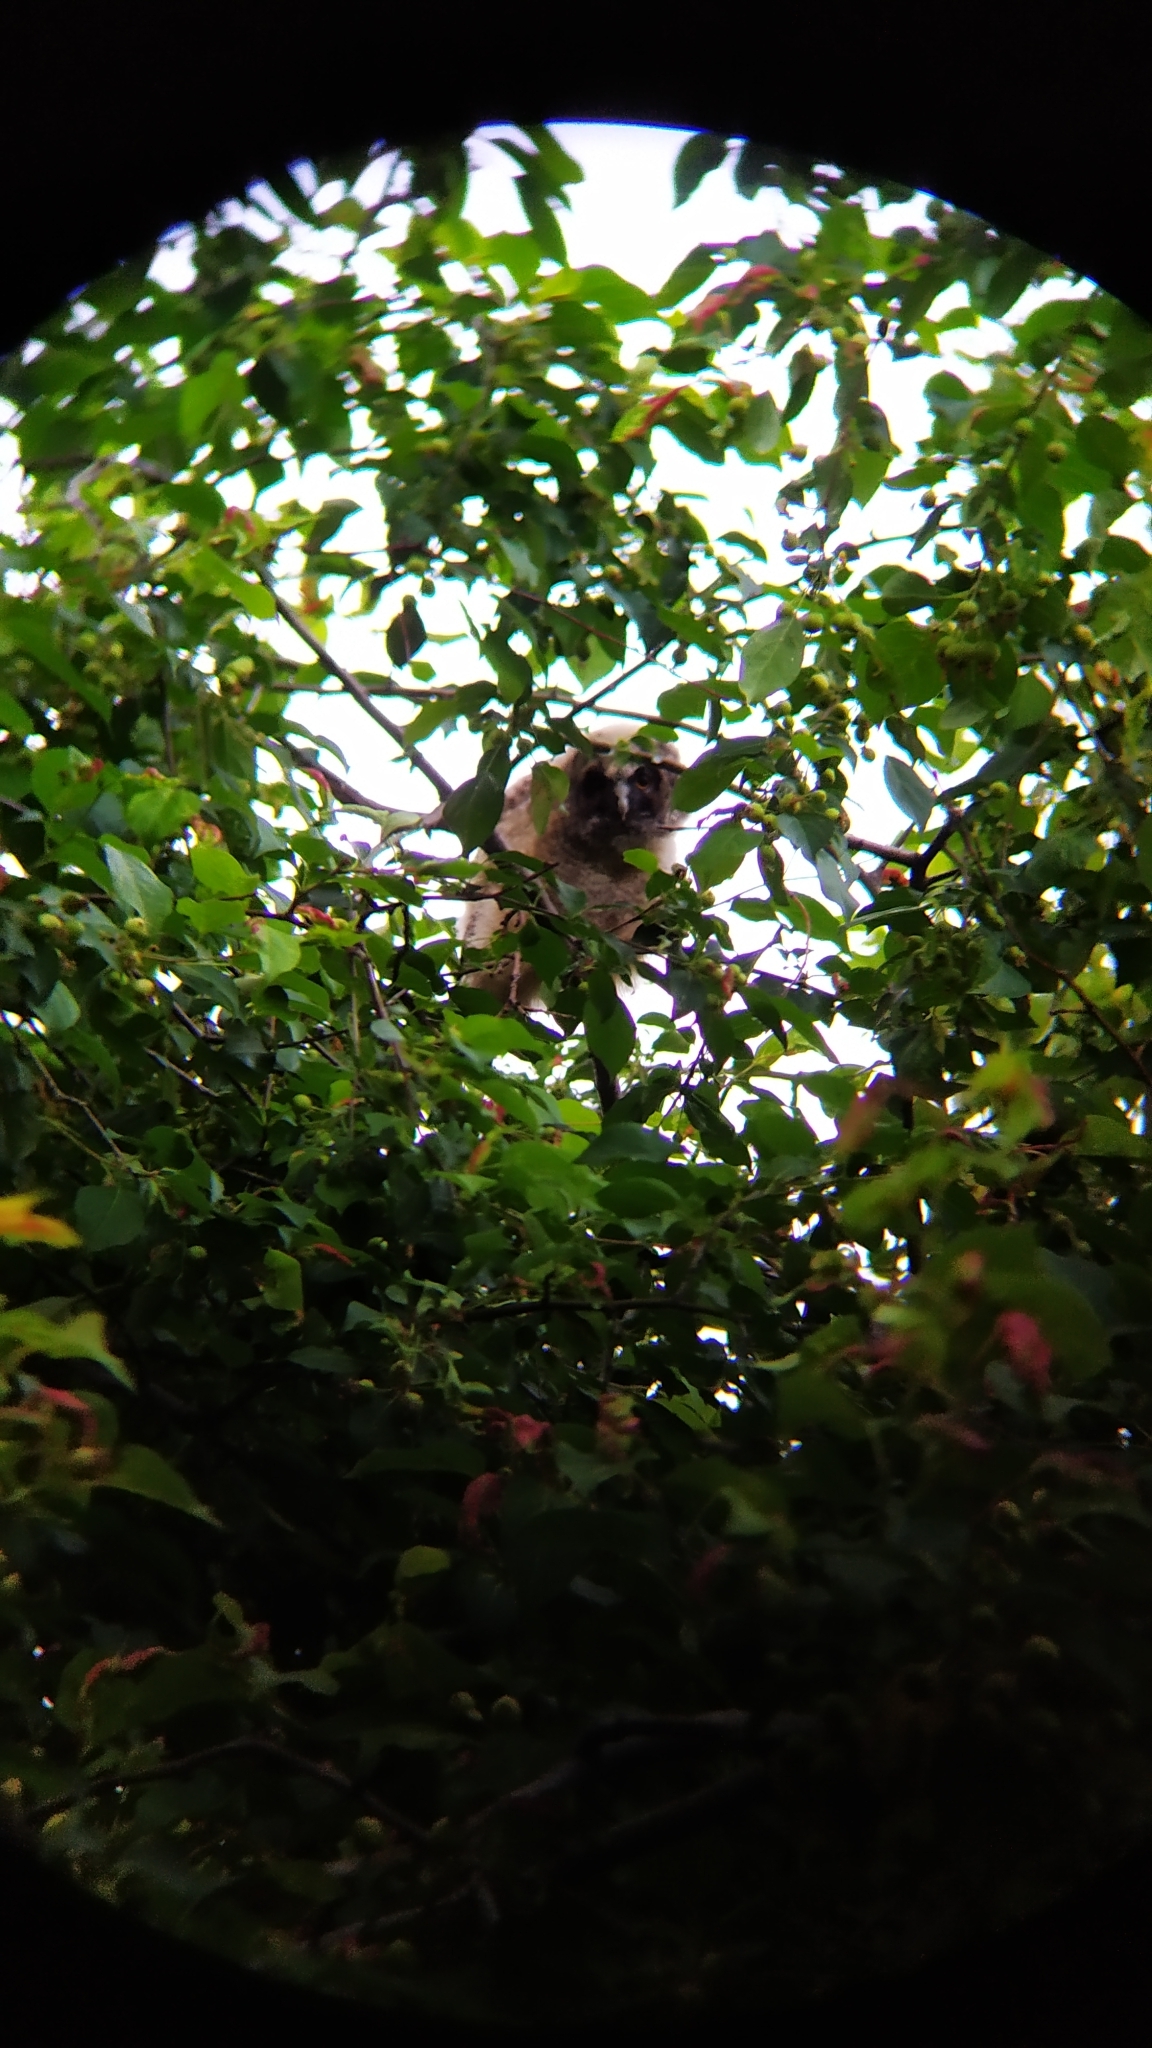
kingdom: Animalia
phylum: Chordata
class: Aves
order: Strigiformes
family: Strigidae
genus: Asio
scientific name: Asio otus
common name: Long-eared owl
